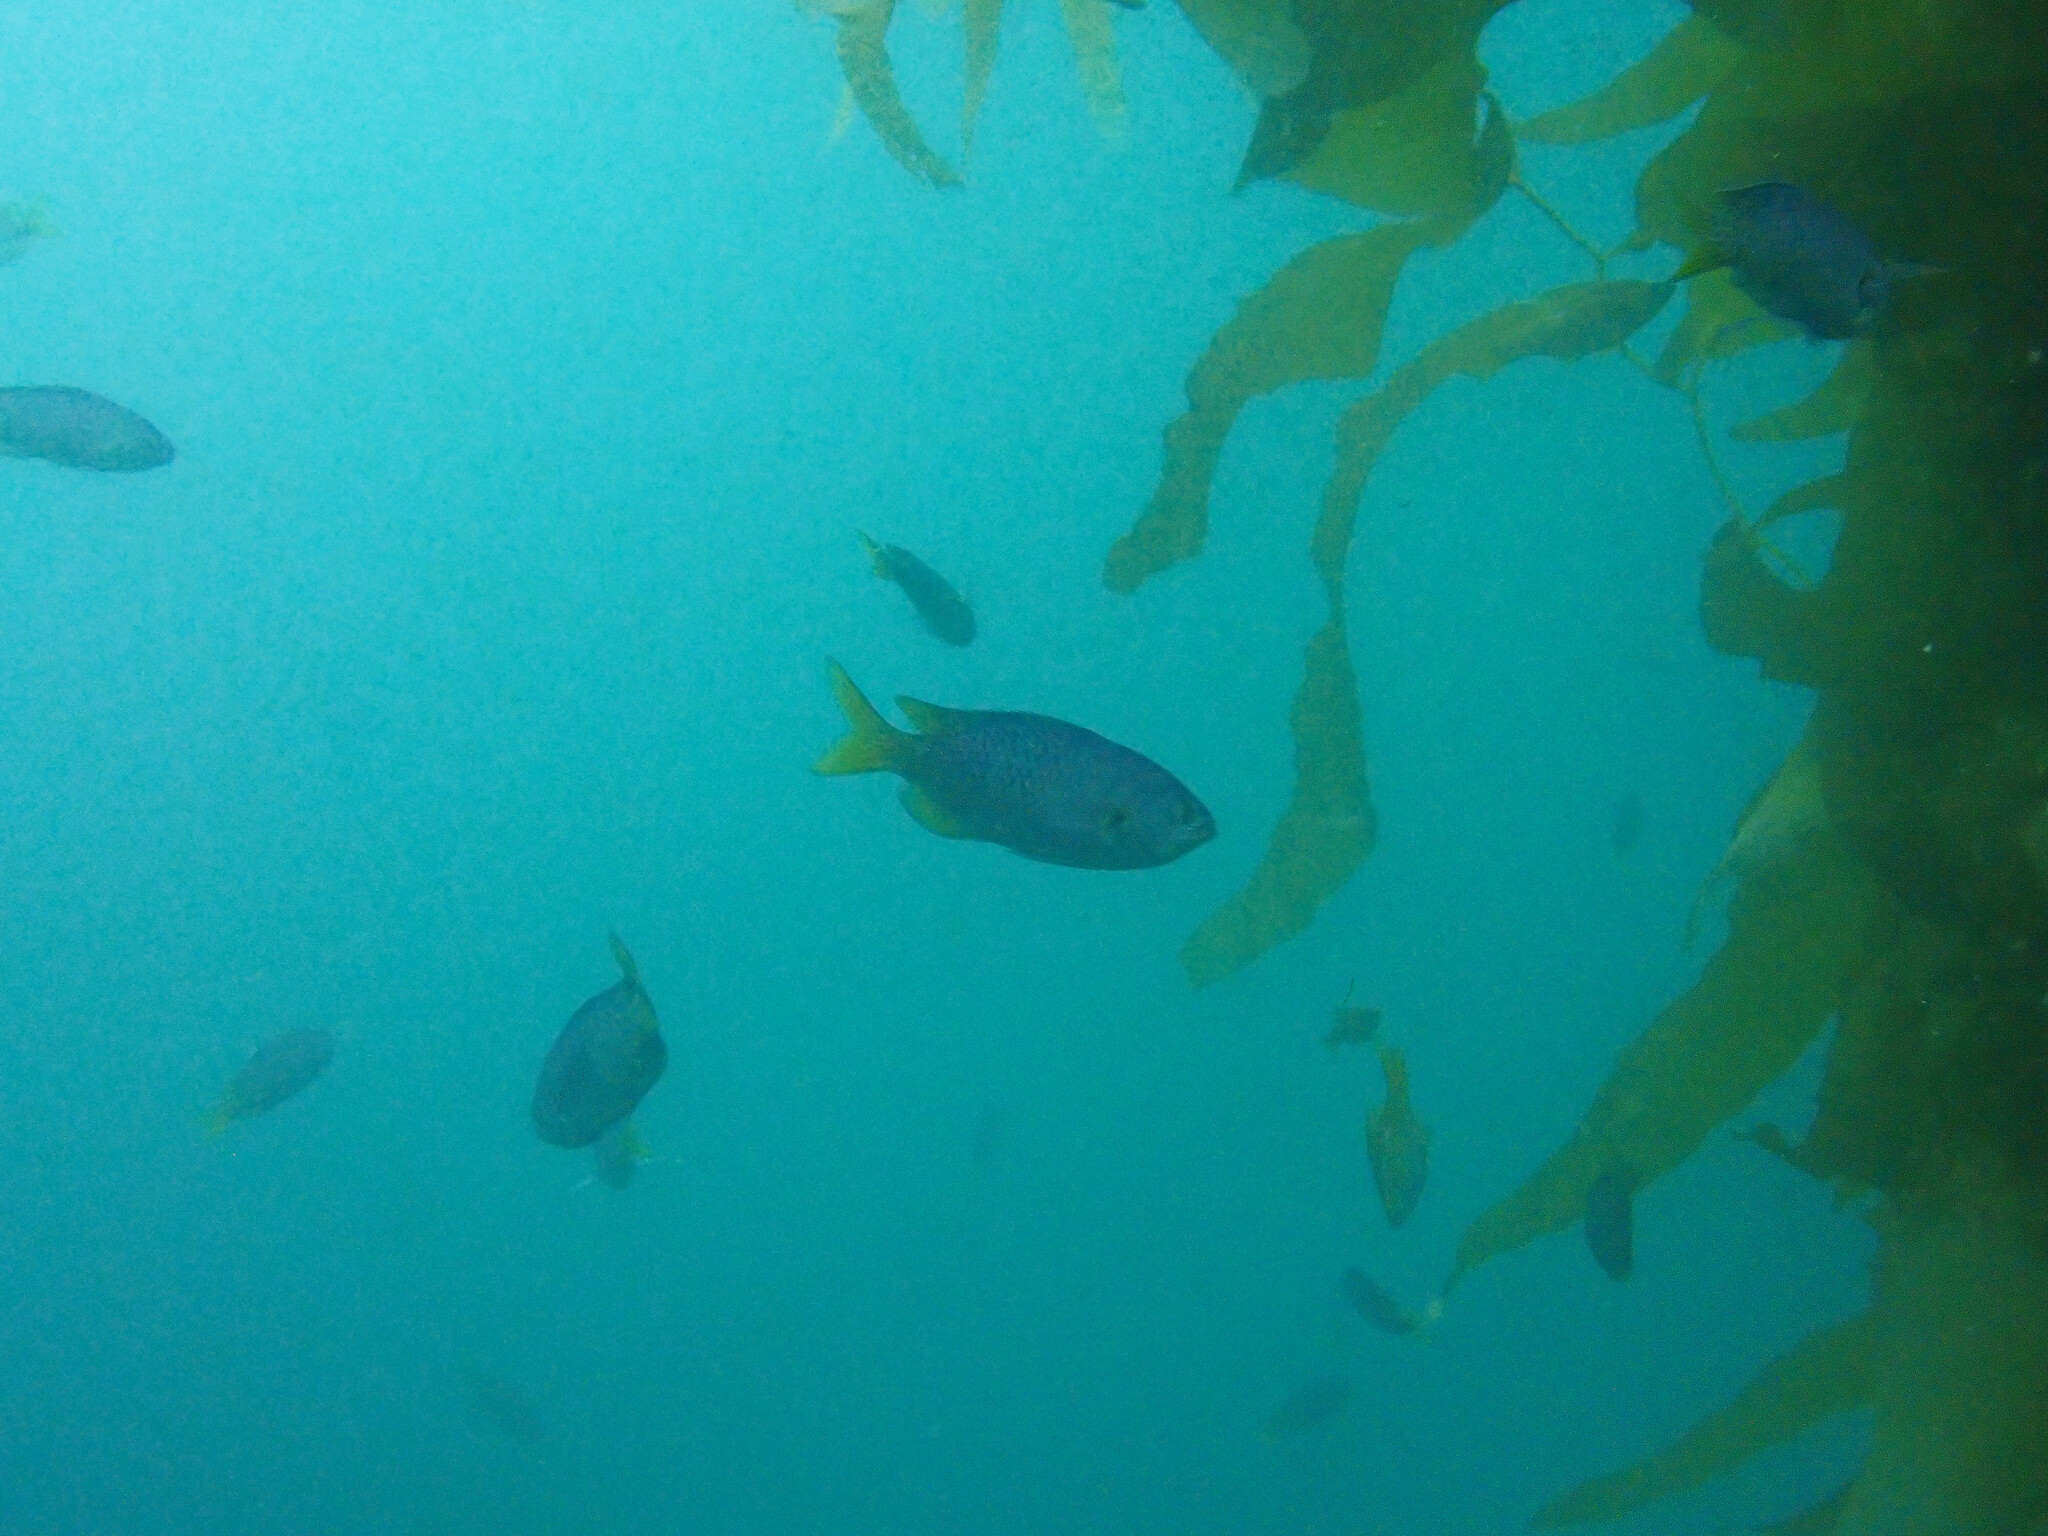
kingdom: Animalia
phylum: Chordata
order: Perciformes
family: Pomacentridae
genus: Chromis
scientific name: Chromis punctipinnis
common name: Blacksmith
